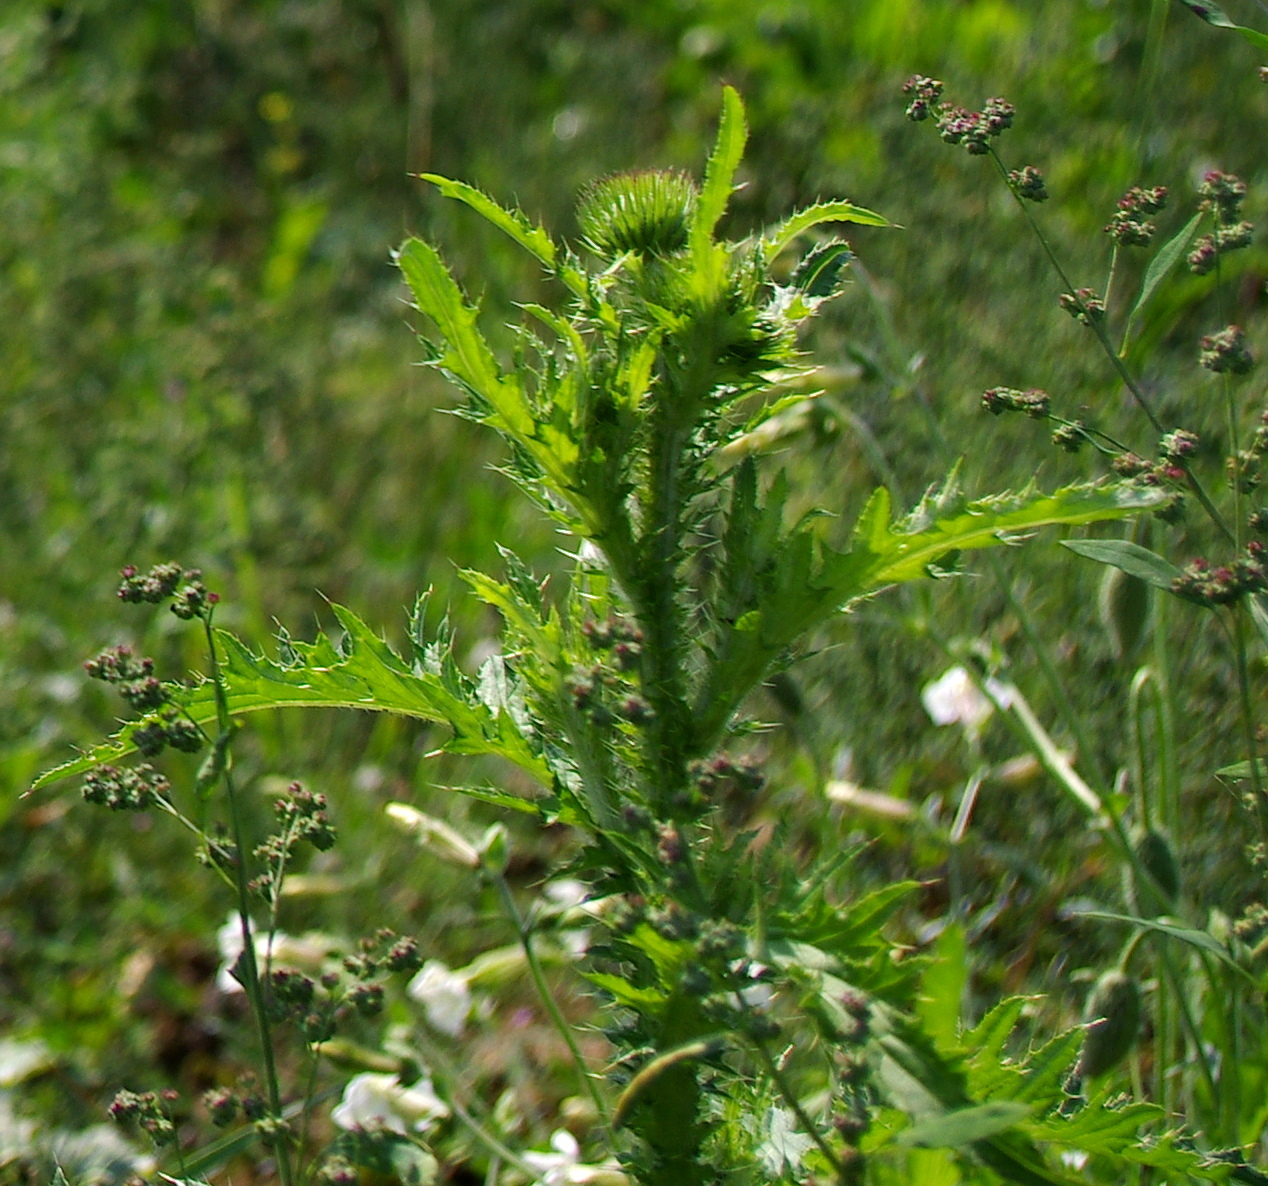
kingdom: Plantae
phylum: Tracheophyta
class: Magnoliopsida
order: Asterales
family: Asteraceae
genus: Carduus
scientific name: Carduus crispus
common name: Welted thistle
